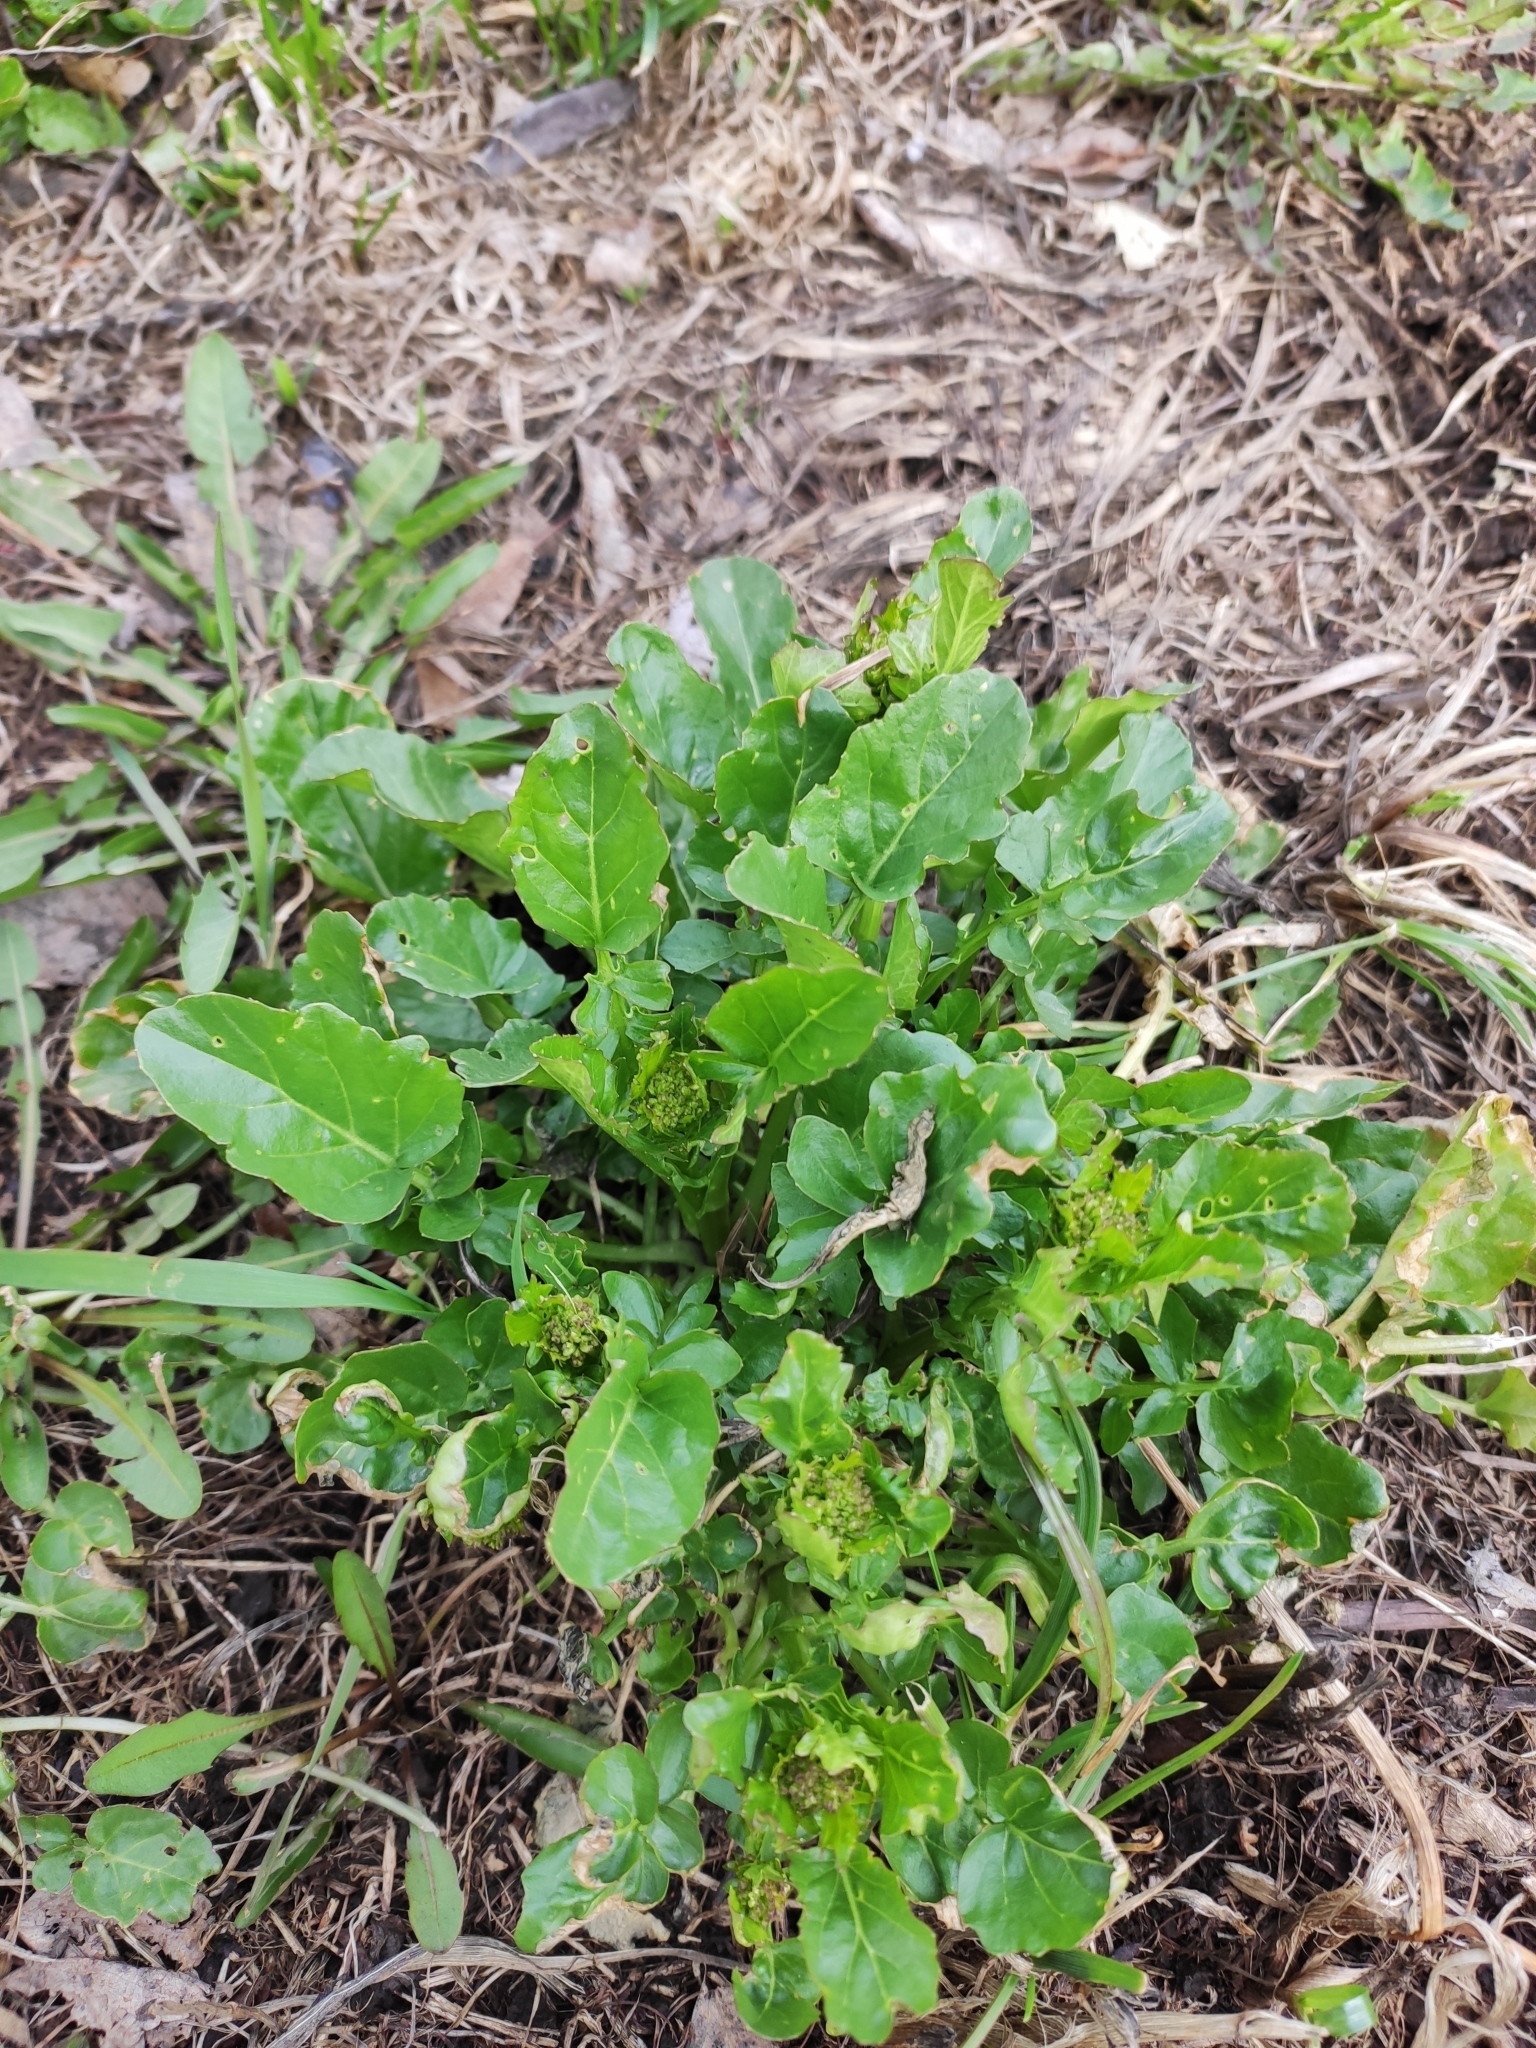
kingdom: Plantae
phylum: Tracheophyta
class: Magnoliopsida
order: Brassicales
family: Brassicaceae
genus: Barbarea
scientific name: Barbarea vulgaris
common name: Cressy-greens
